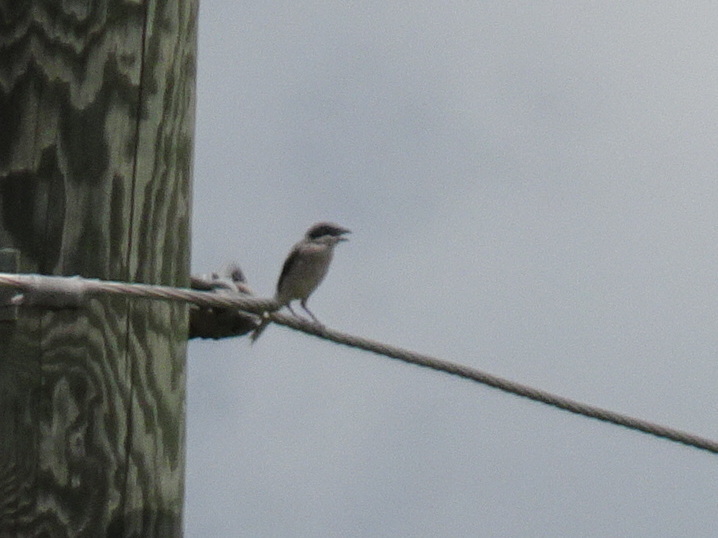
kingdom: Animalia
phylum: Chordata
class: Aves
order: Passeriformes
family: Laniidae
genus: Lanius
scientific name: Lanius ludovicianus
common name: Loggerhead shrike
